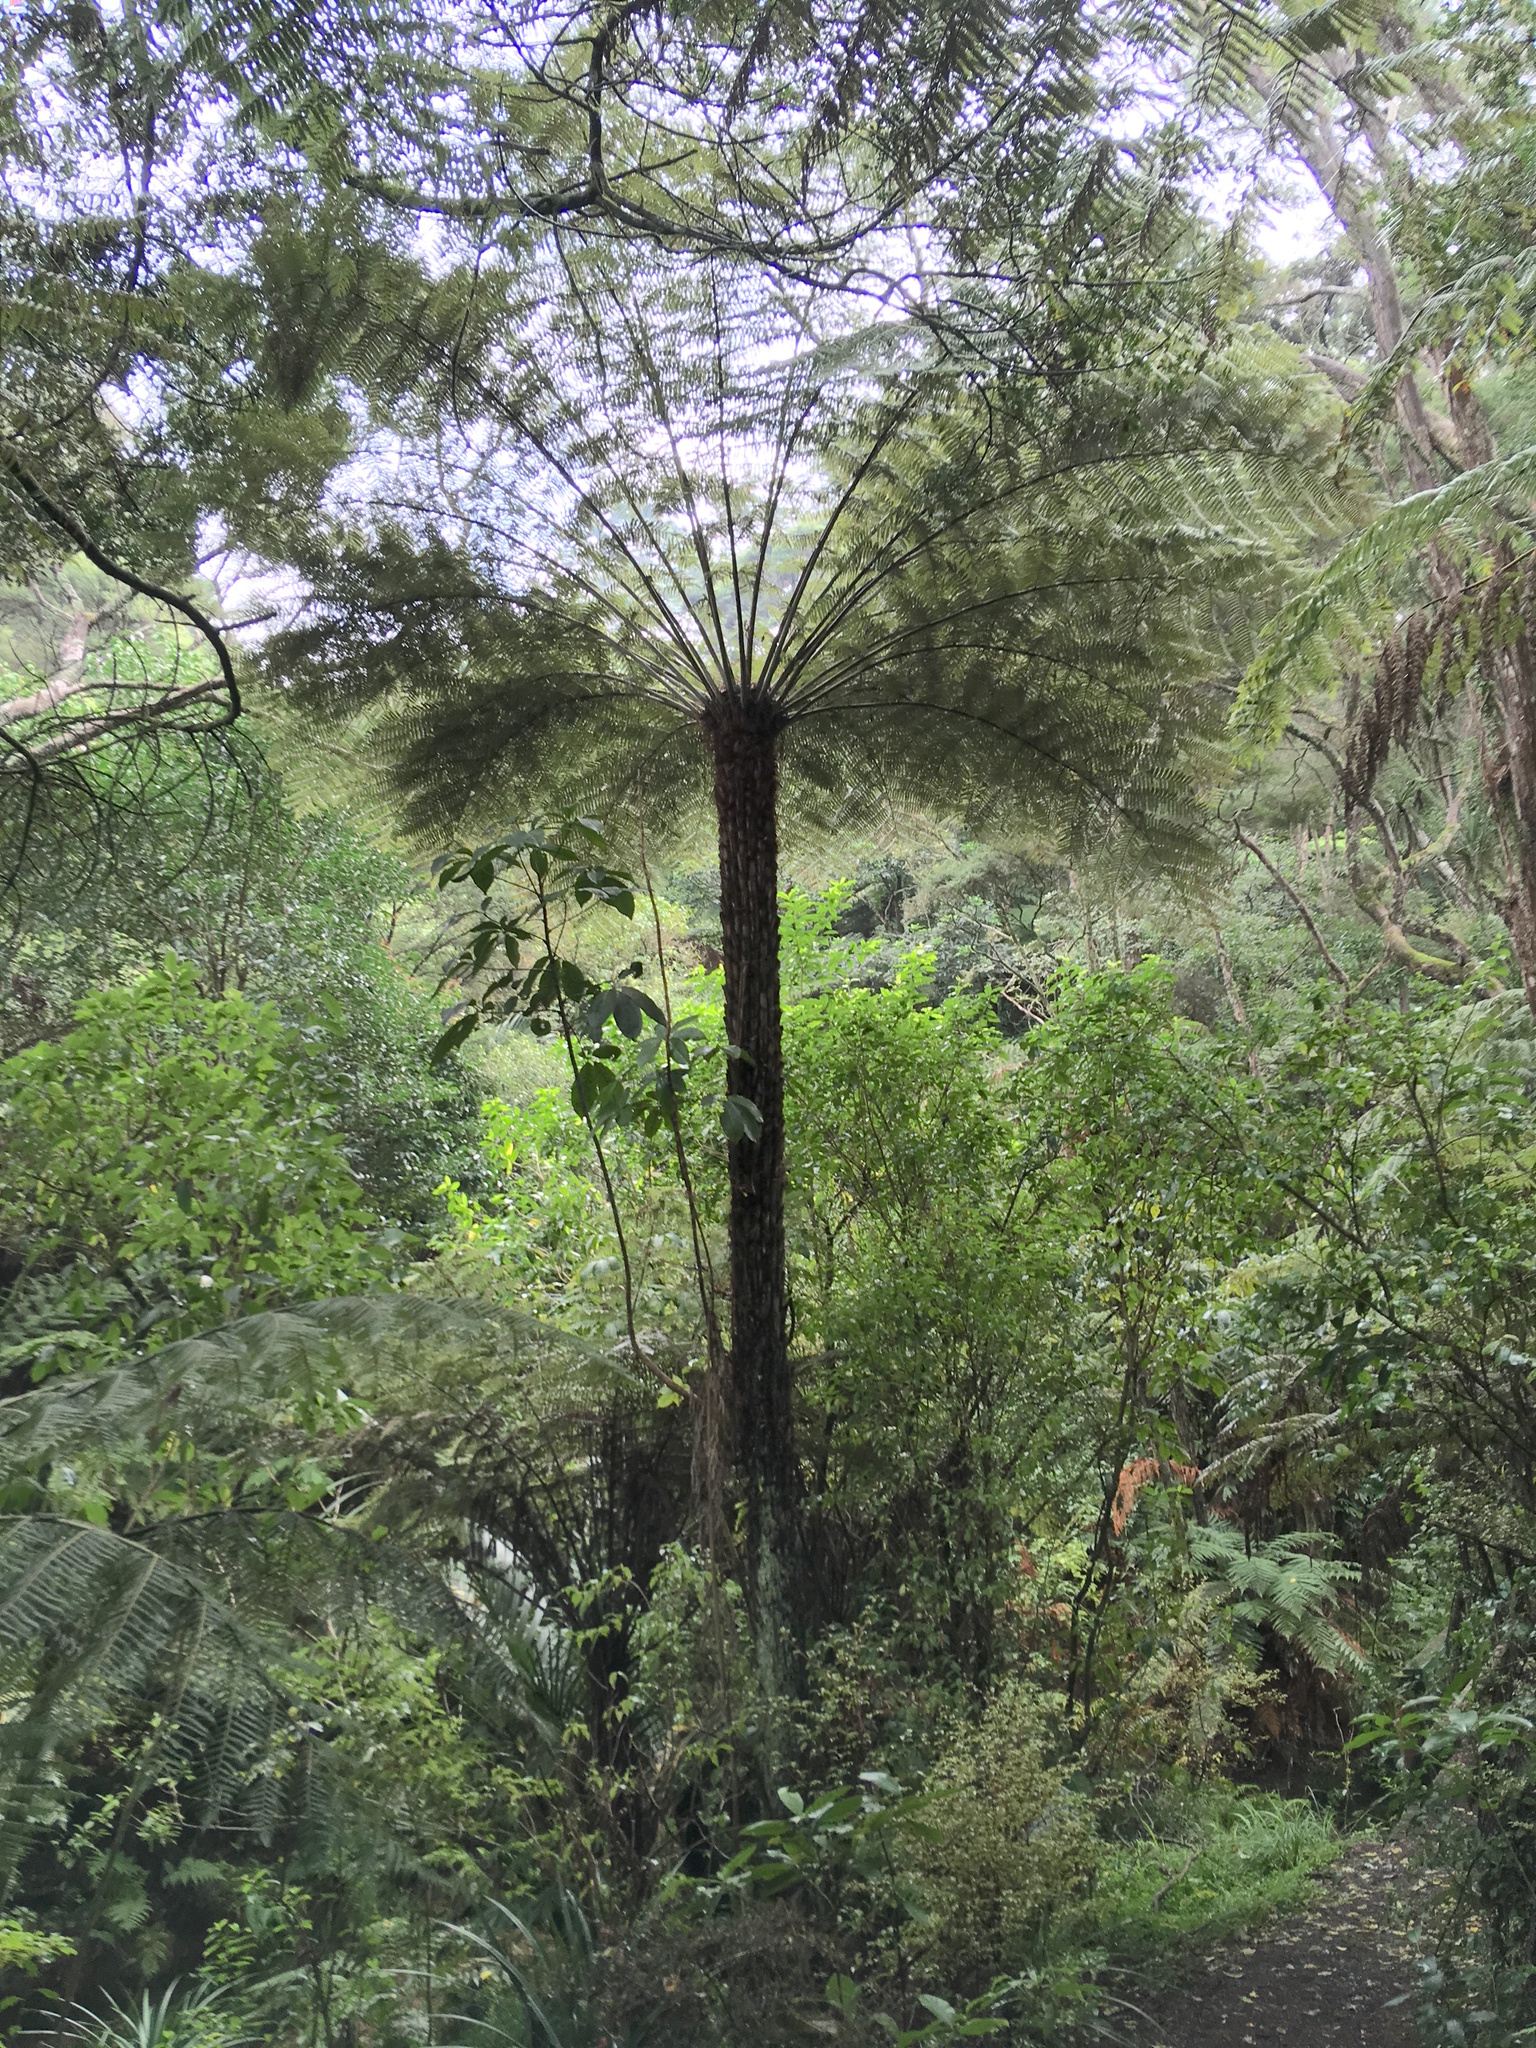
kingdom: Plantae
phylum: Tracheophyta
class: Polypodiopsida
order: Cyatheales
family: Cyatheaceae
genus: Alsophila
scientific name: Alsophila dealbata
